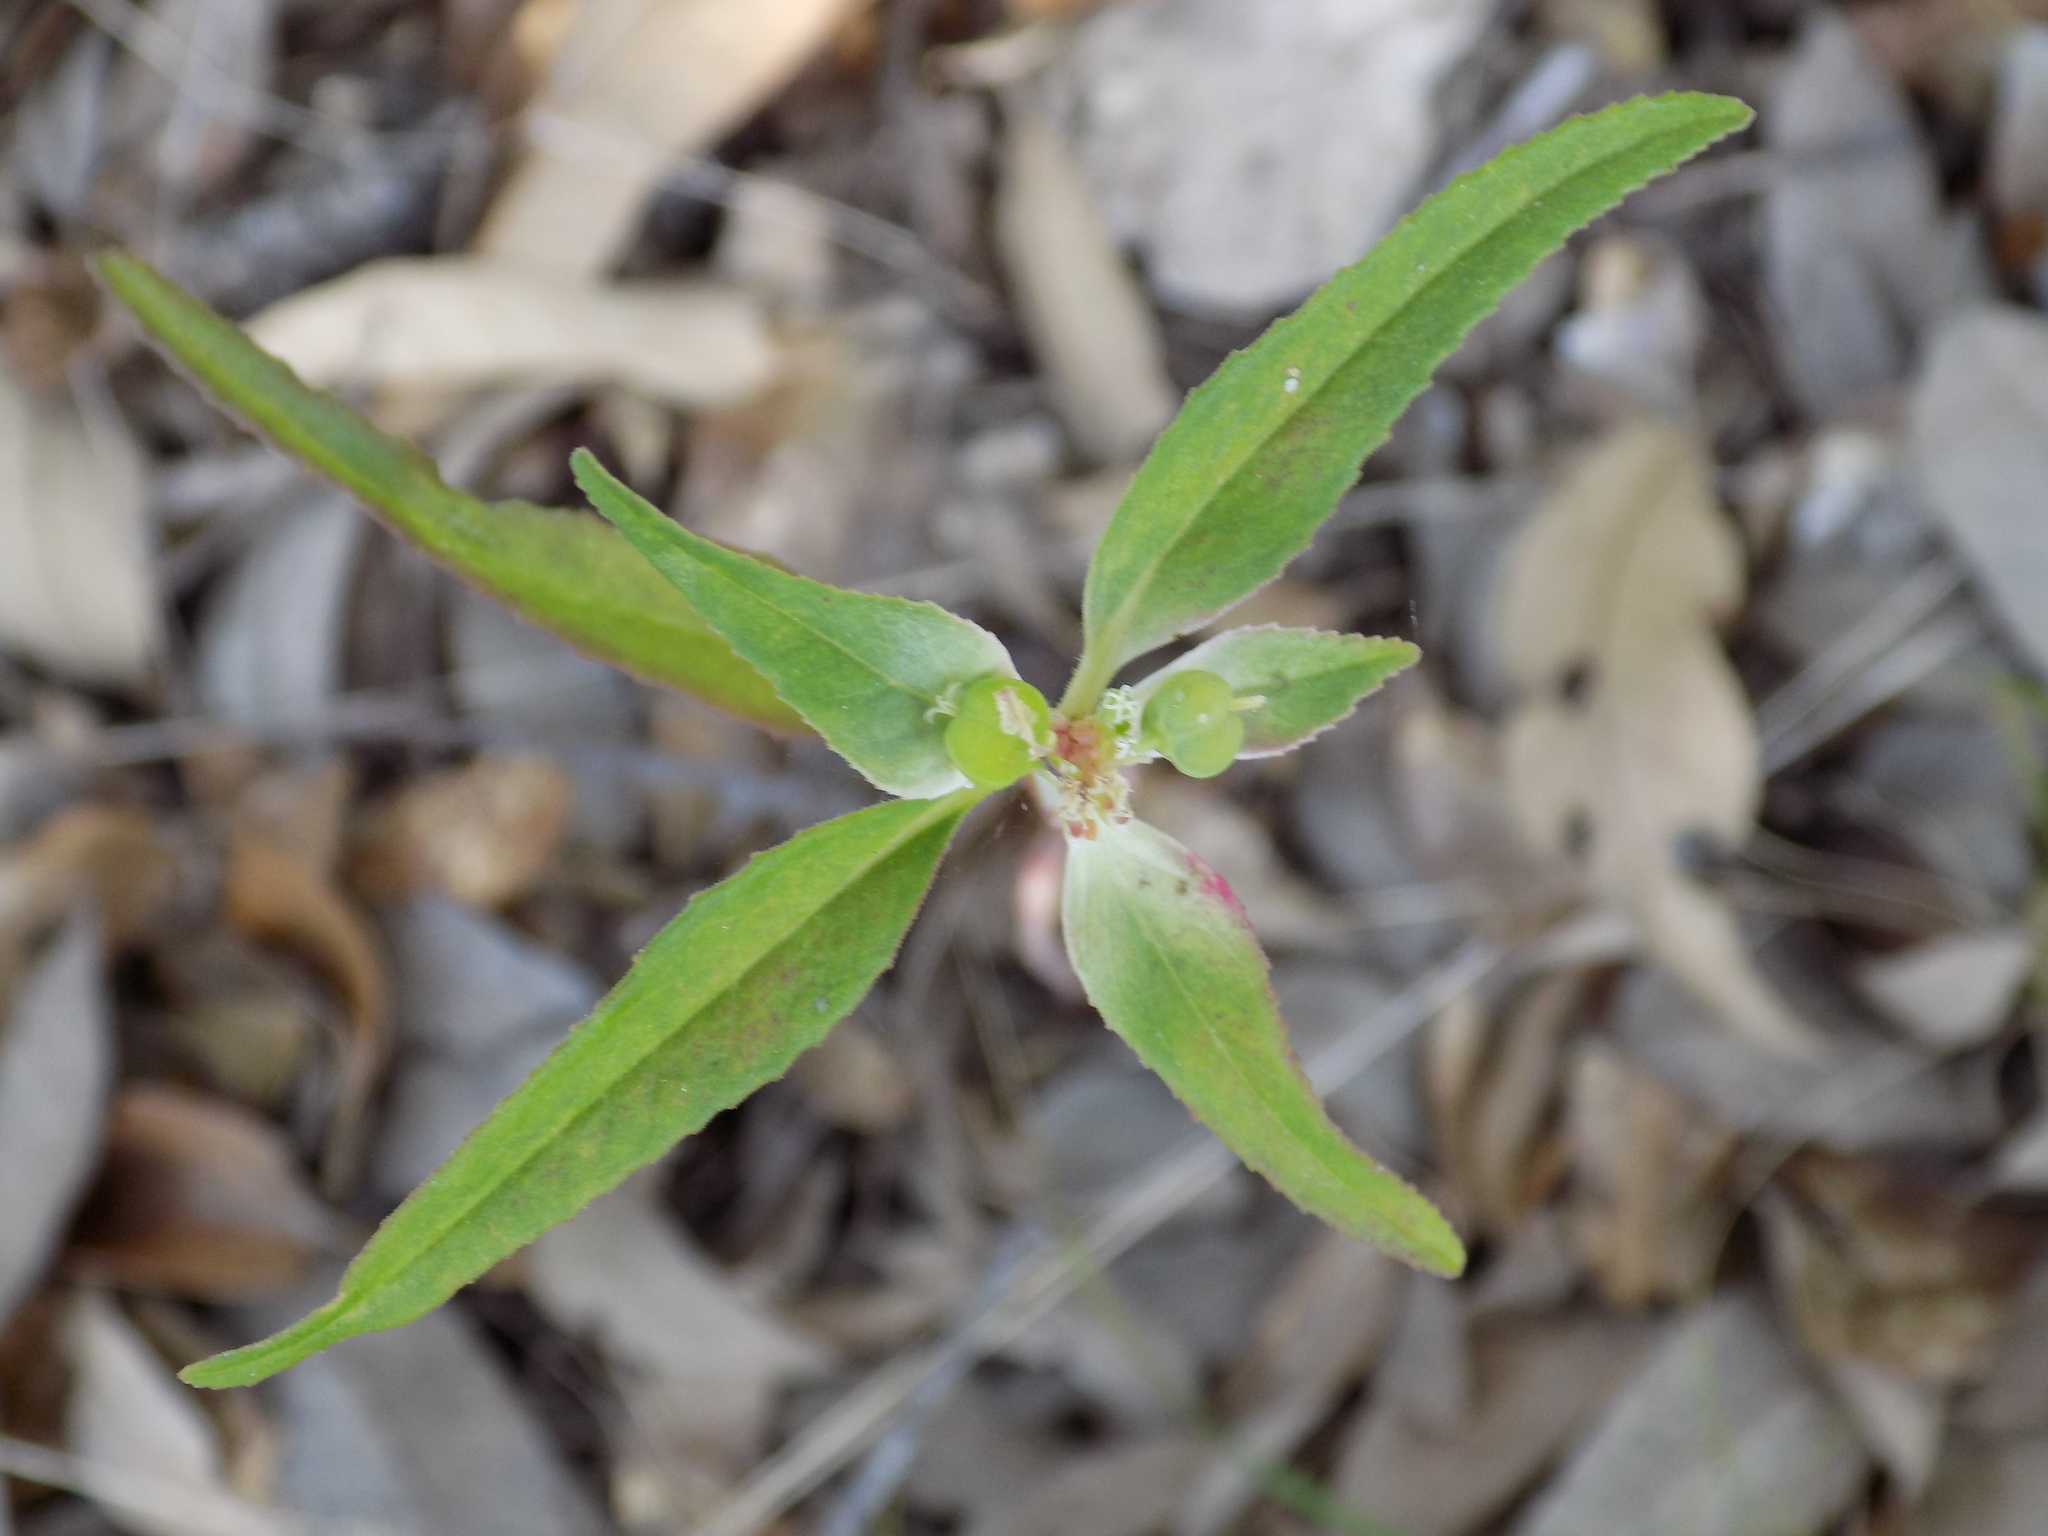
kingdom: Plantae
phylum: Tracheophyta
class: Magnoliopsida
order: Malpighiales
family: Euphorbiaceae
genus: Euphorbia
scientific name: Euphorbia dentata
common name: Dentate spurge
